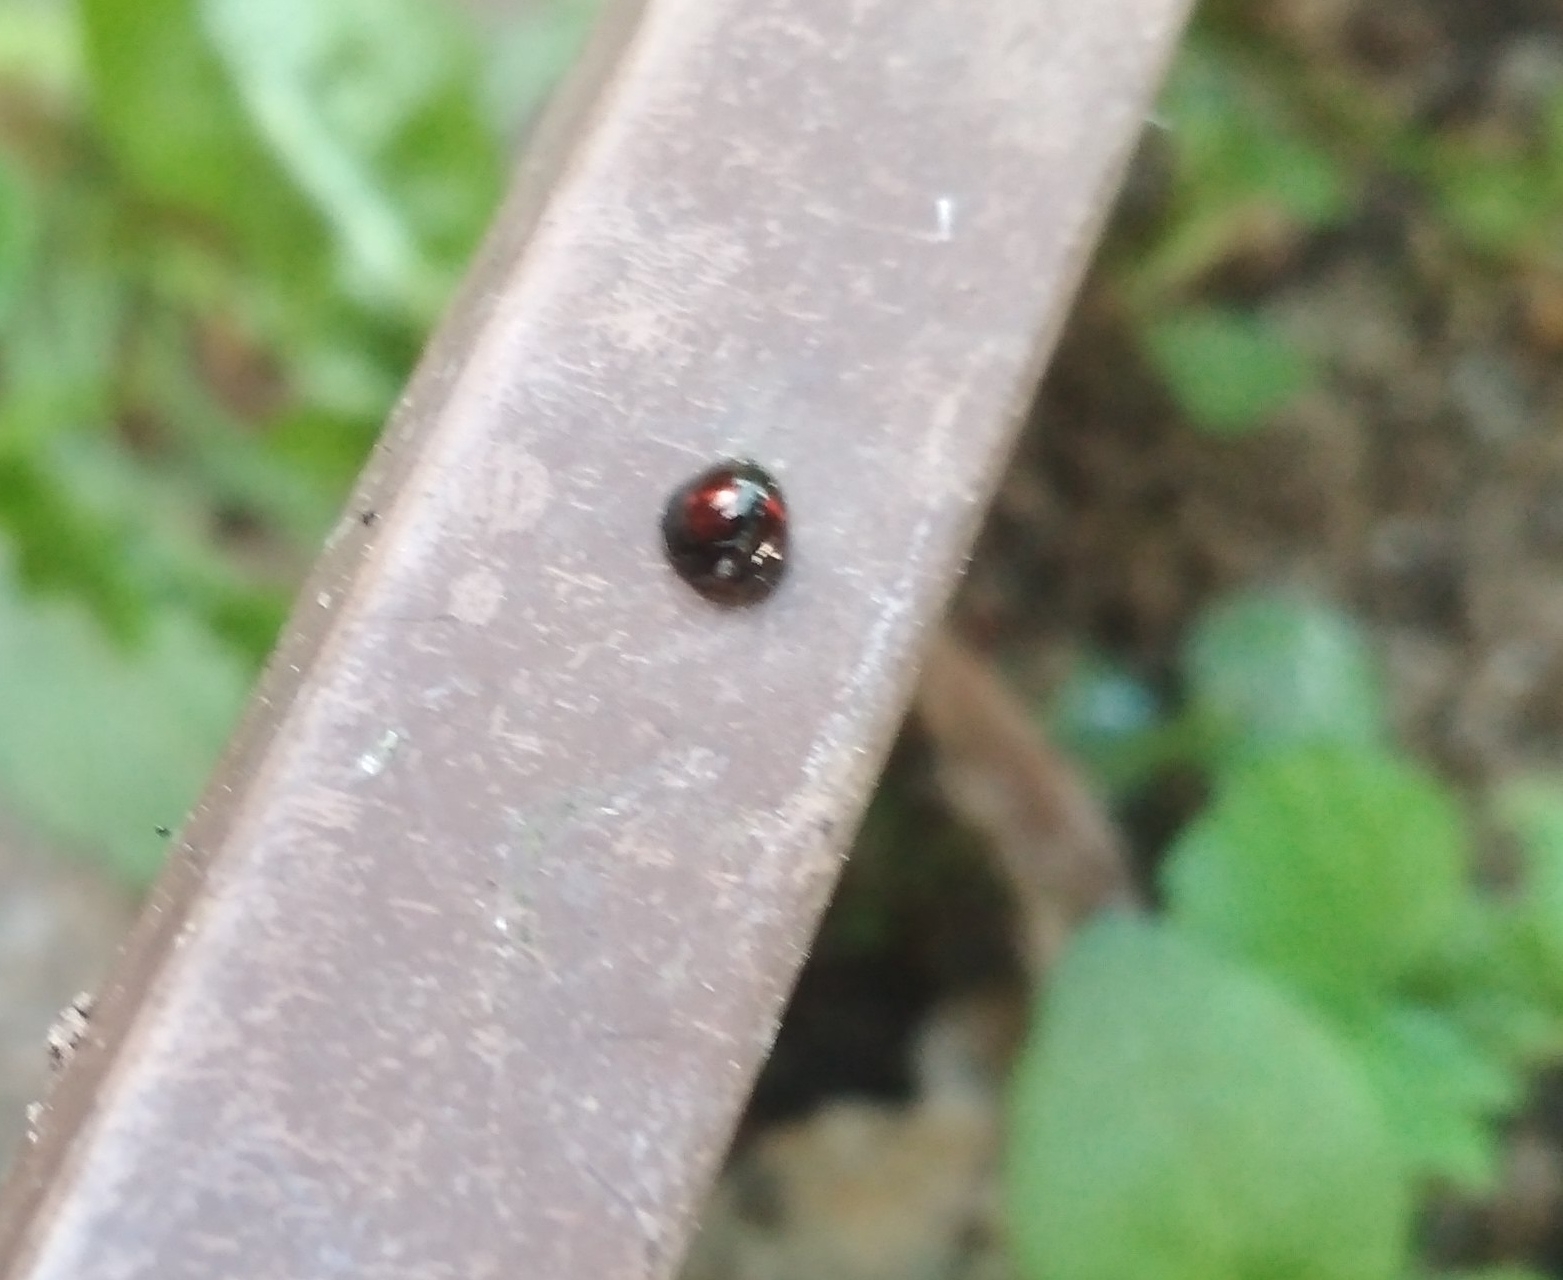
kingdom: Animalia
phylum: Arthropoda
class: Insecta
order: Coleoptera
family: Coccinellidae
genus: Chilocorus
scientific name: Chilocorus bipustulatus
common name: Heather ladybird
